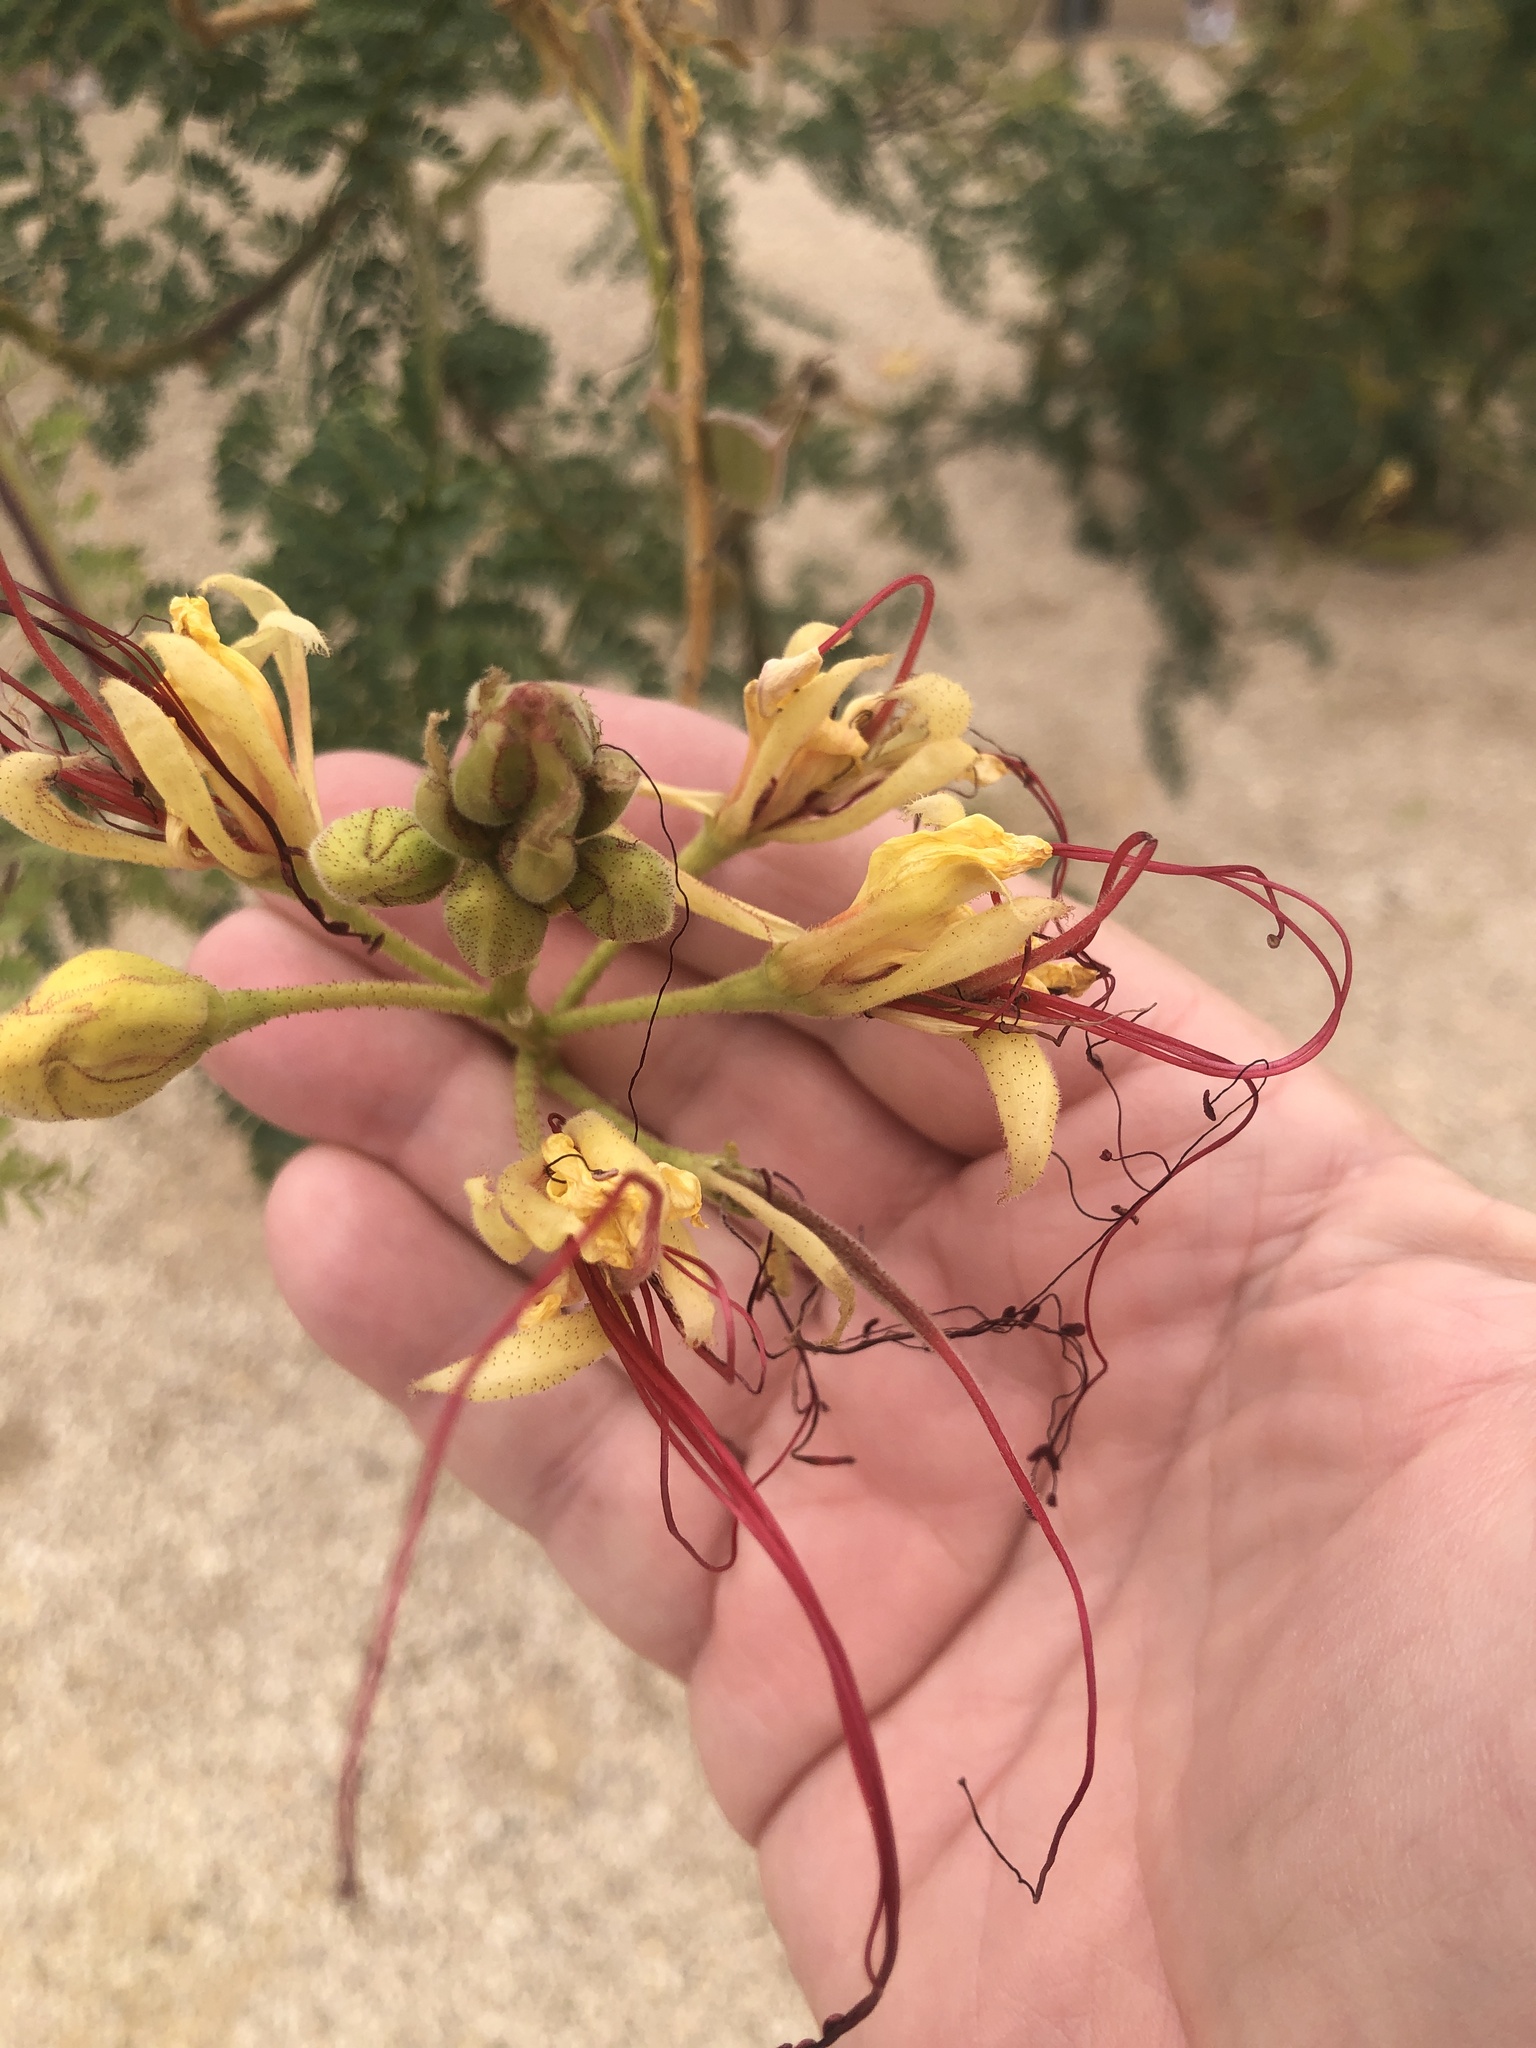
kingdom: Plantae
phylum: Tracheophyta
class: Magnoliopsida
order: Fabales
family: Fabaceae
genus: Erythrostemon
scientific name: Erythrostemon gilliesii
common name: Bird-of-paradise shrub
